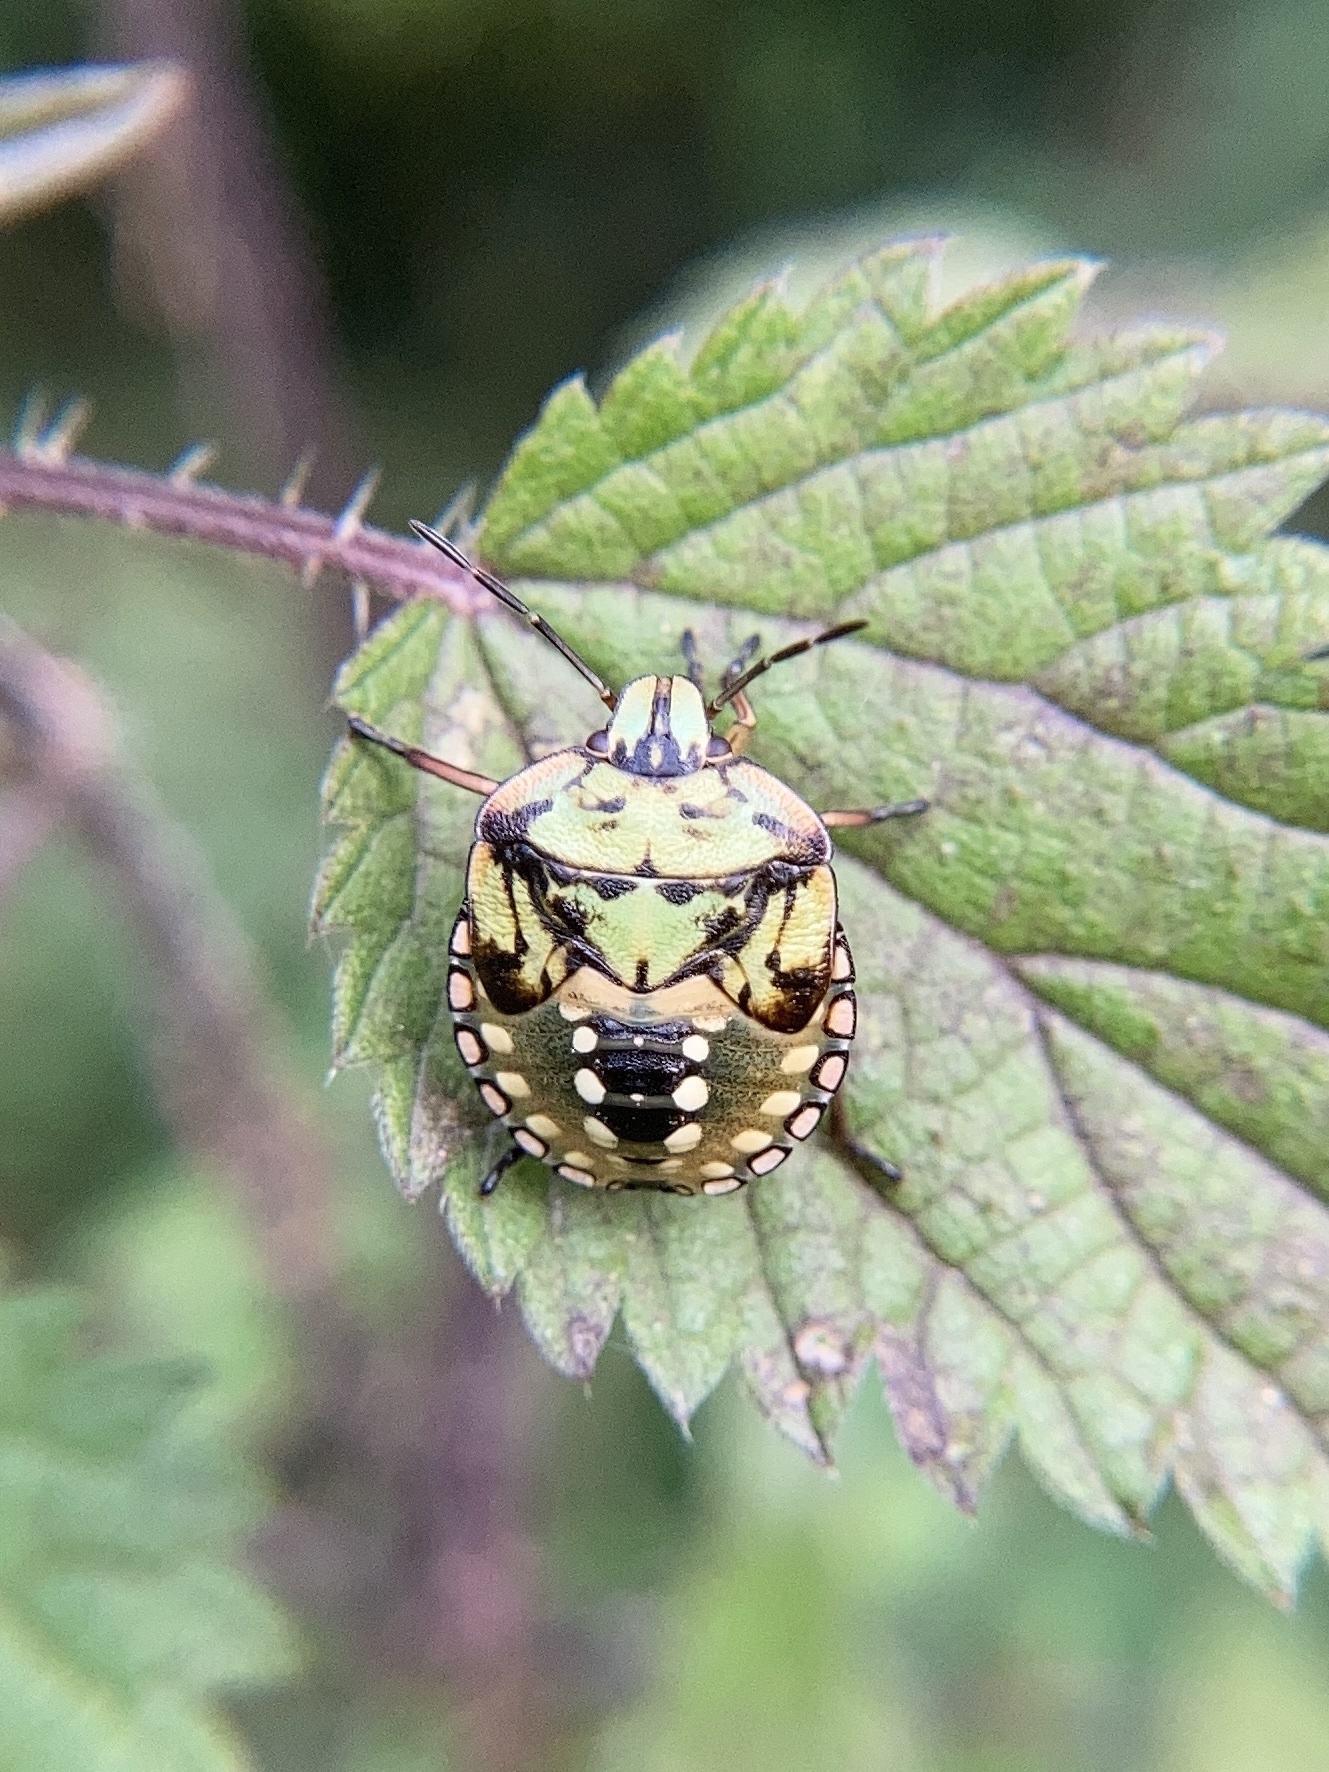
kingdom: Animalia
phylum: Arthropoda
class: Insecta
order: Hemiptera
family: Pentatomidae
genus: Nezara
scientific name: Nezara viridula
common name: Southern green stink bug
